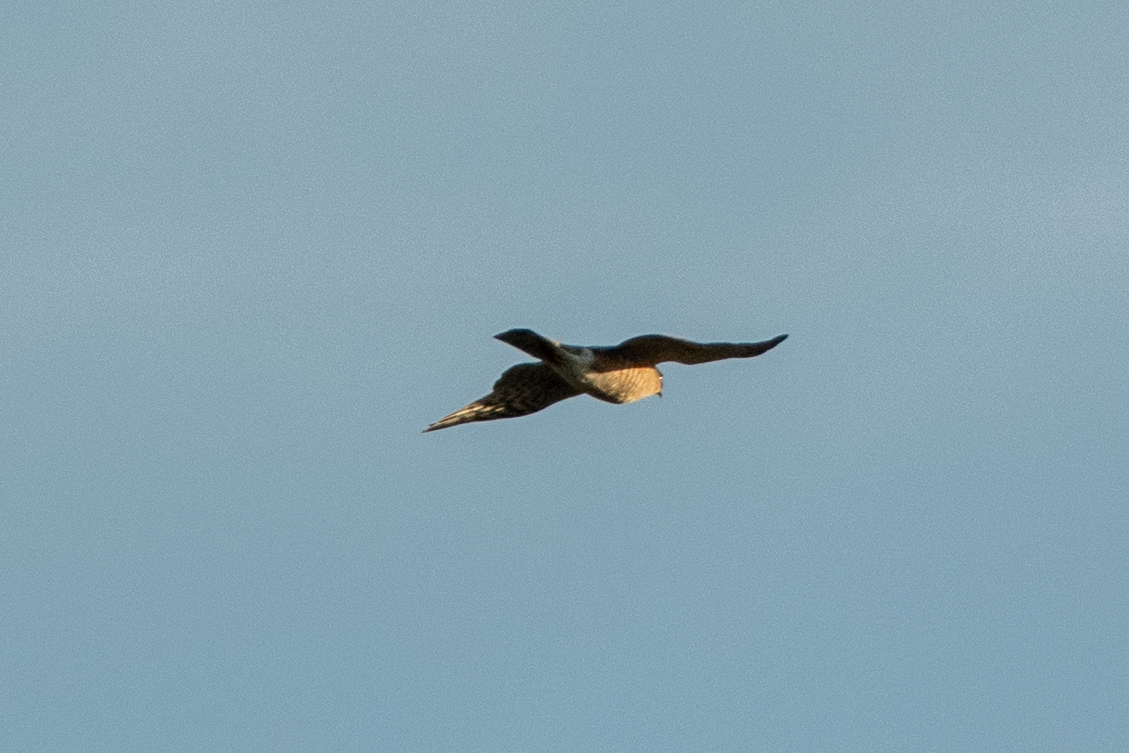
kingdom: Animalia
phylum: Chordata
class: Aves
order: Accipitriformes
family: Accipitridae
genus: Accipiter
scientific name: Accipiter striatus
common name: Sharp-shinned hawk
